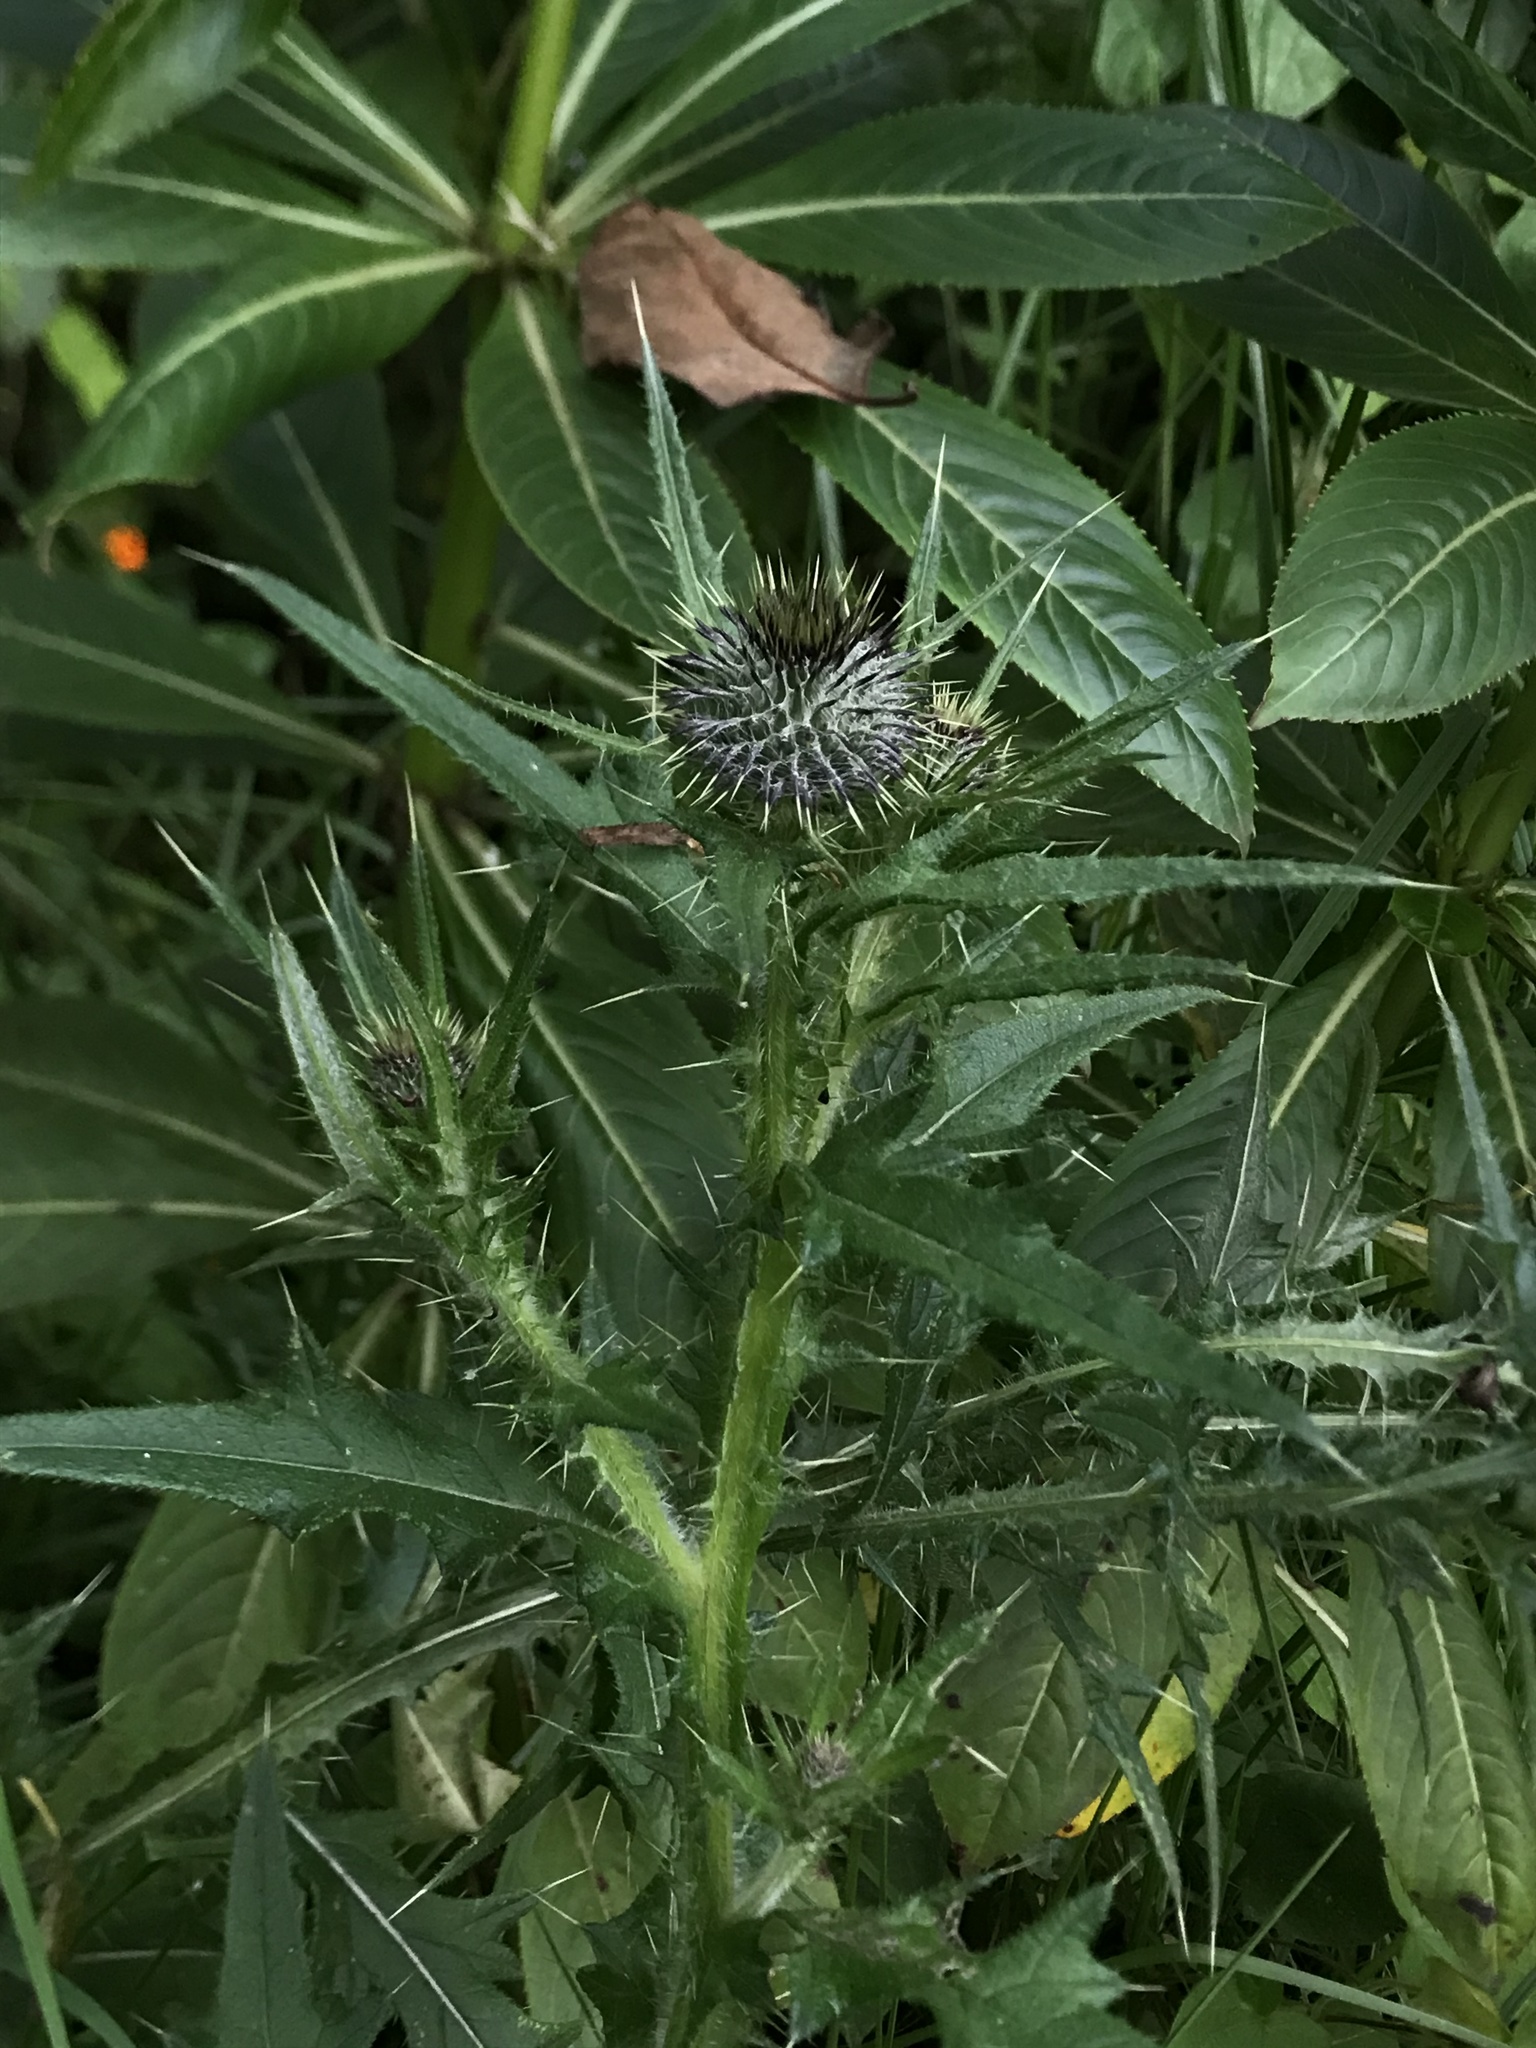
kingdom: Plantae
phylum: Tracheophyta
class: Magnoliopsida
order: Asterales
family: Asteraceae
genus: Cirsium
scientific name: Cirsium vulgare
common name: Bull thistle
